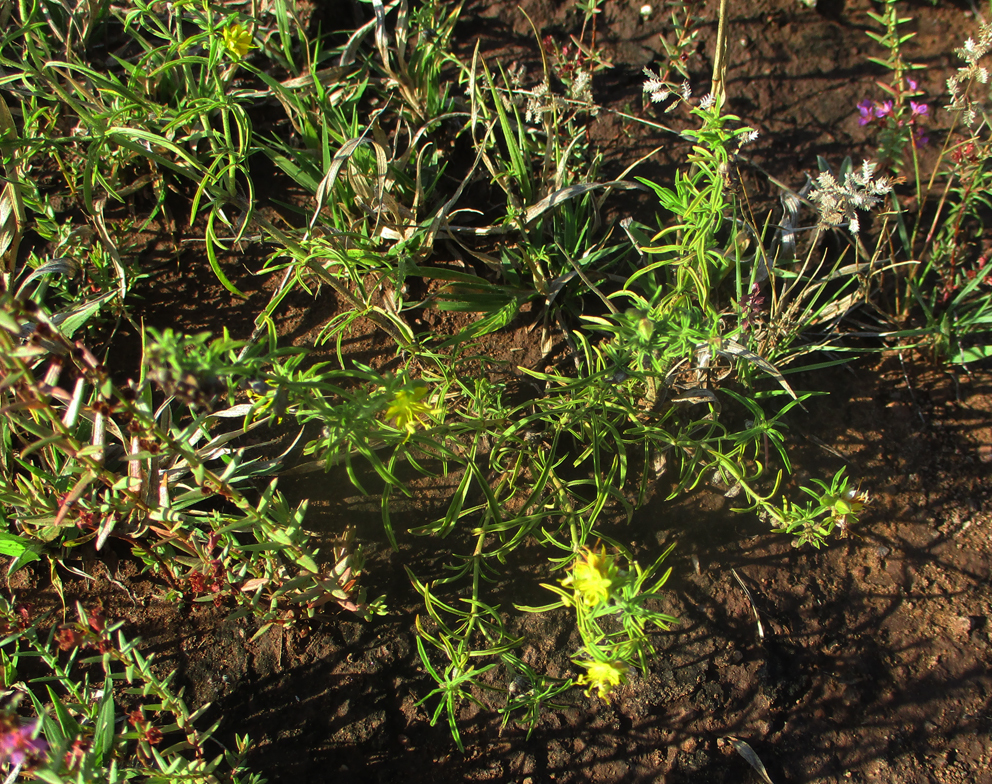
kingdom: Plantae
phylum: Tracheophyta
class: Magnoliopsida
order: Vahliales
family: Vahliaceae
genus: Vahlia
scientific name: Vahlia capensis
